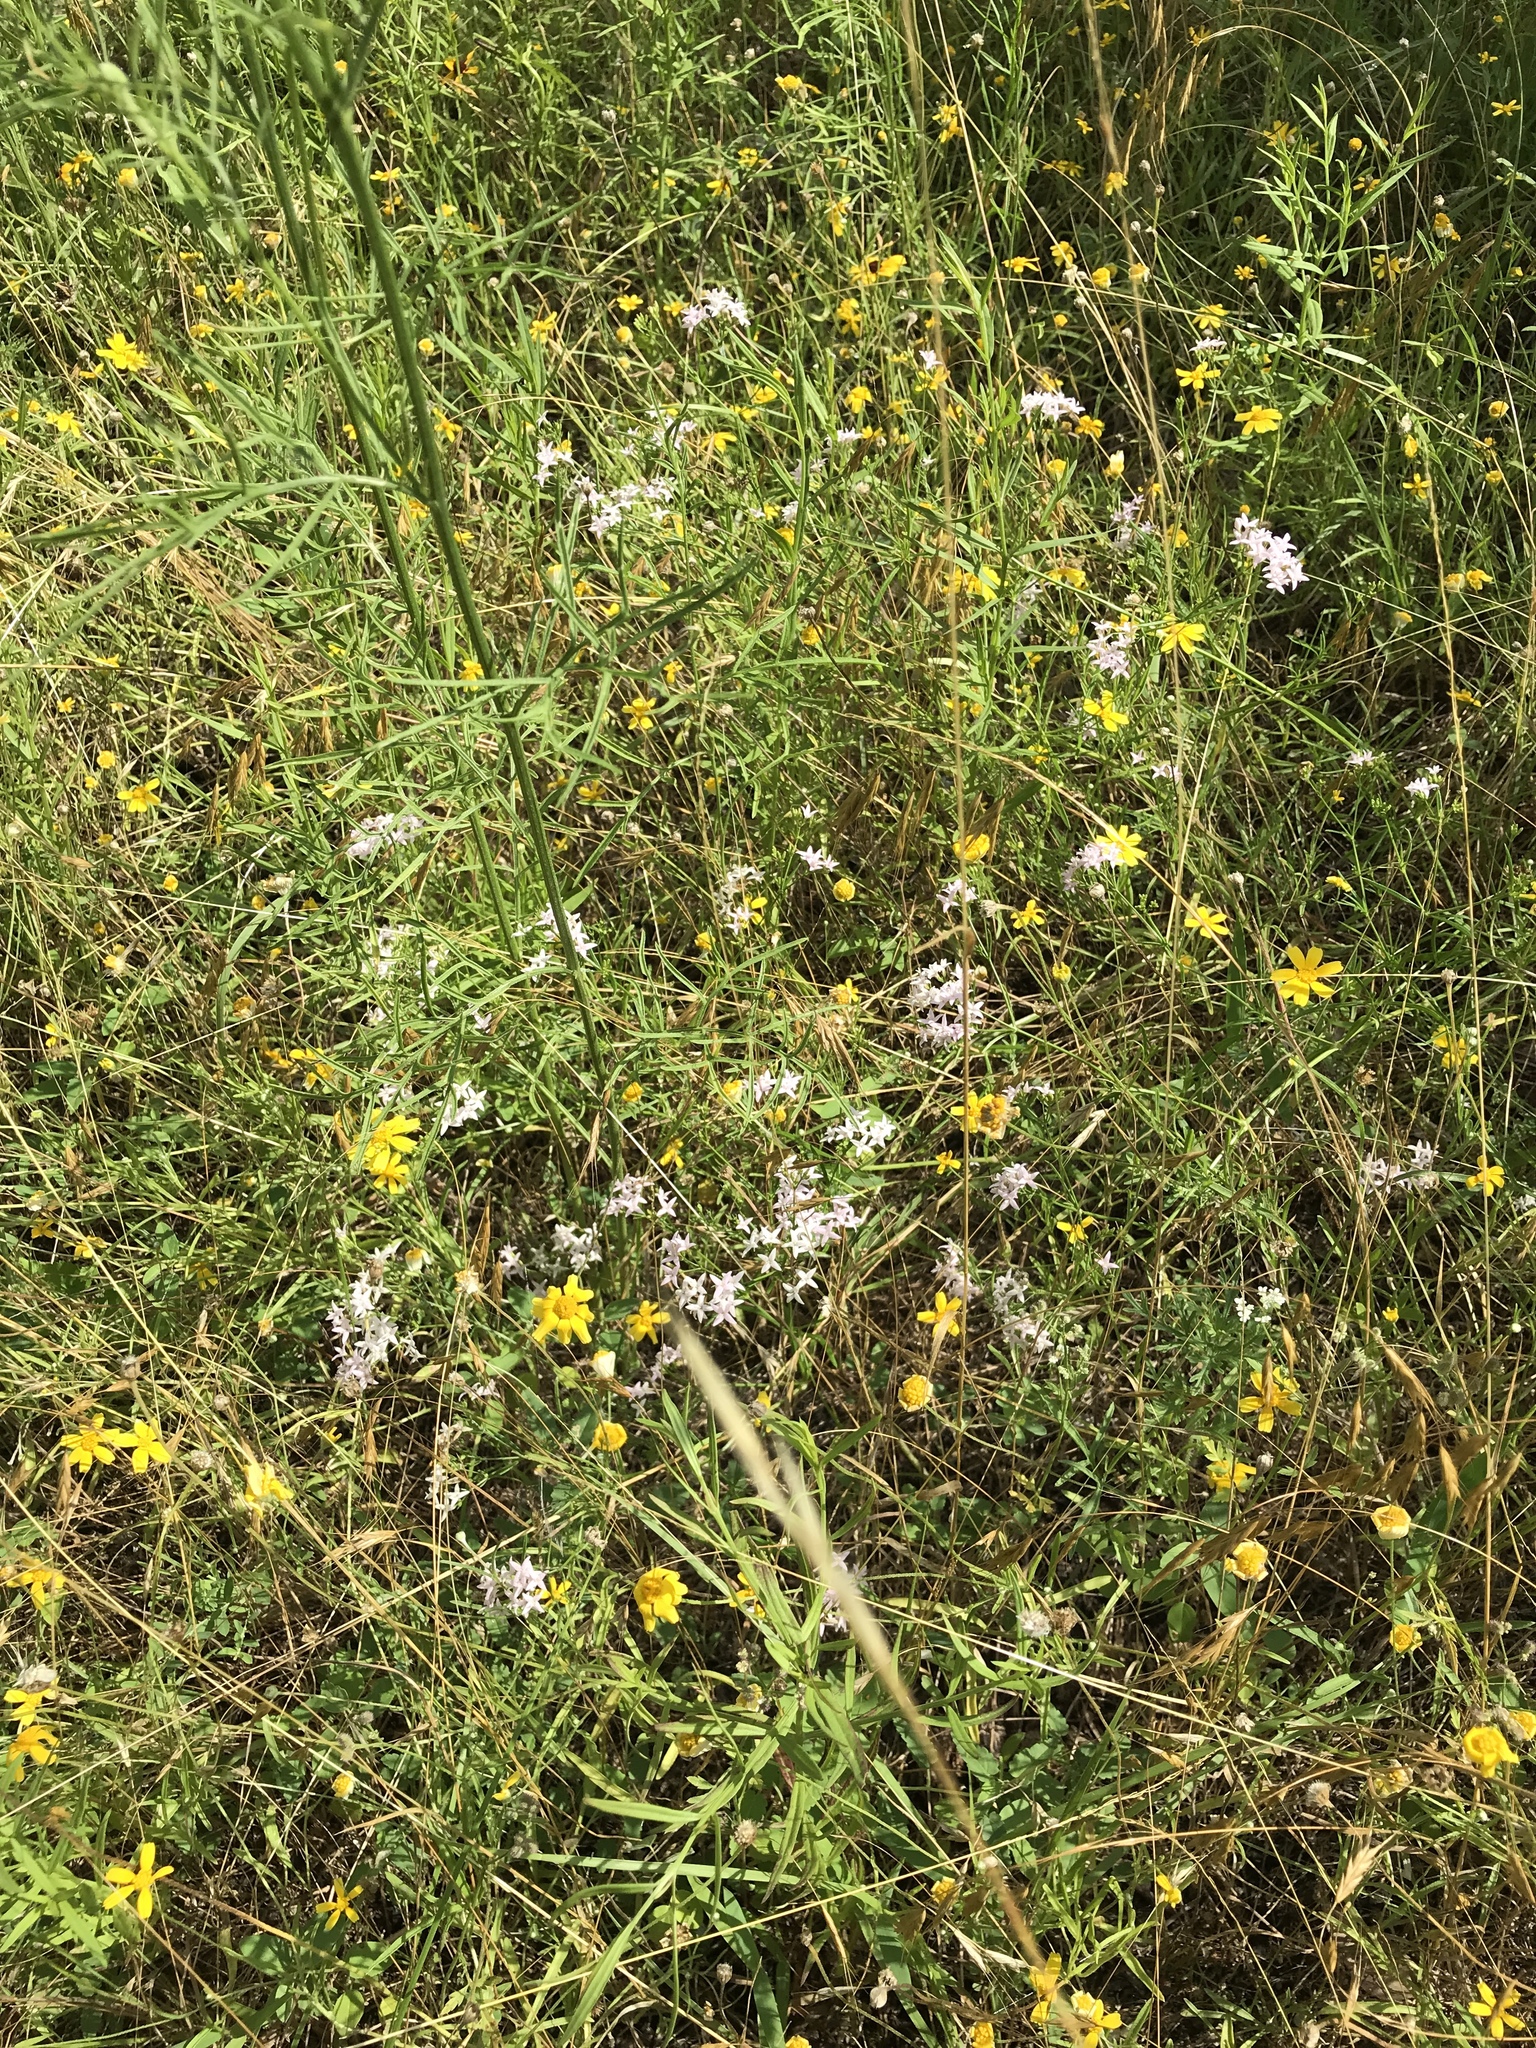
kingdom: Plantae
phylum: Tracheophyta
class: Magnoliopsida
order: Gentianales
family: Rubiaceae
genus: Stenaria
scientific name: Stenaria nigricans
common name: Diamondflowers
